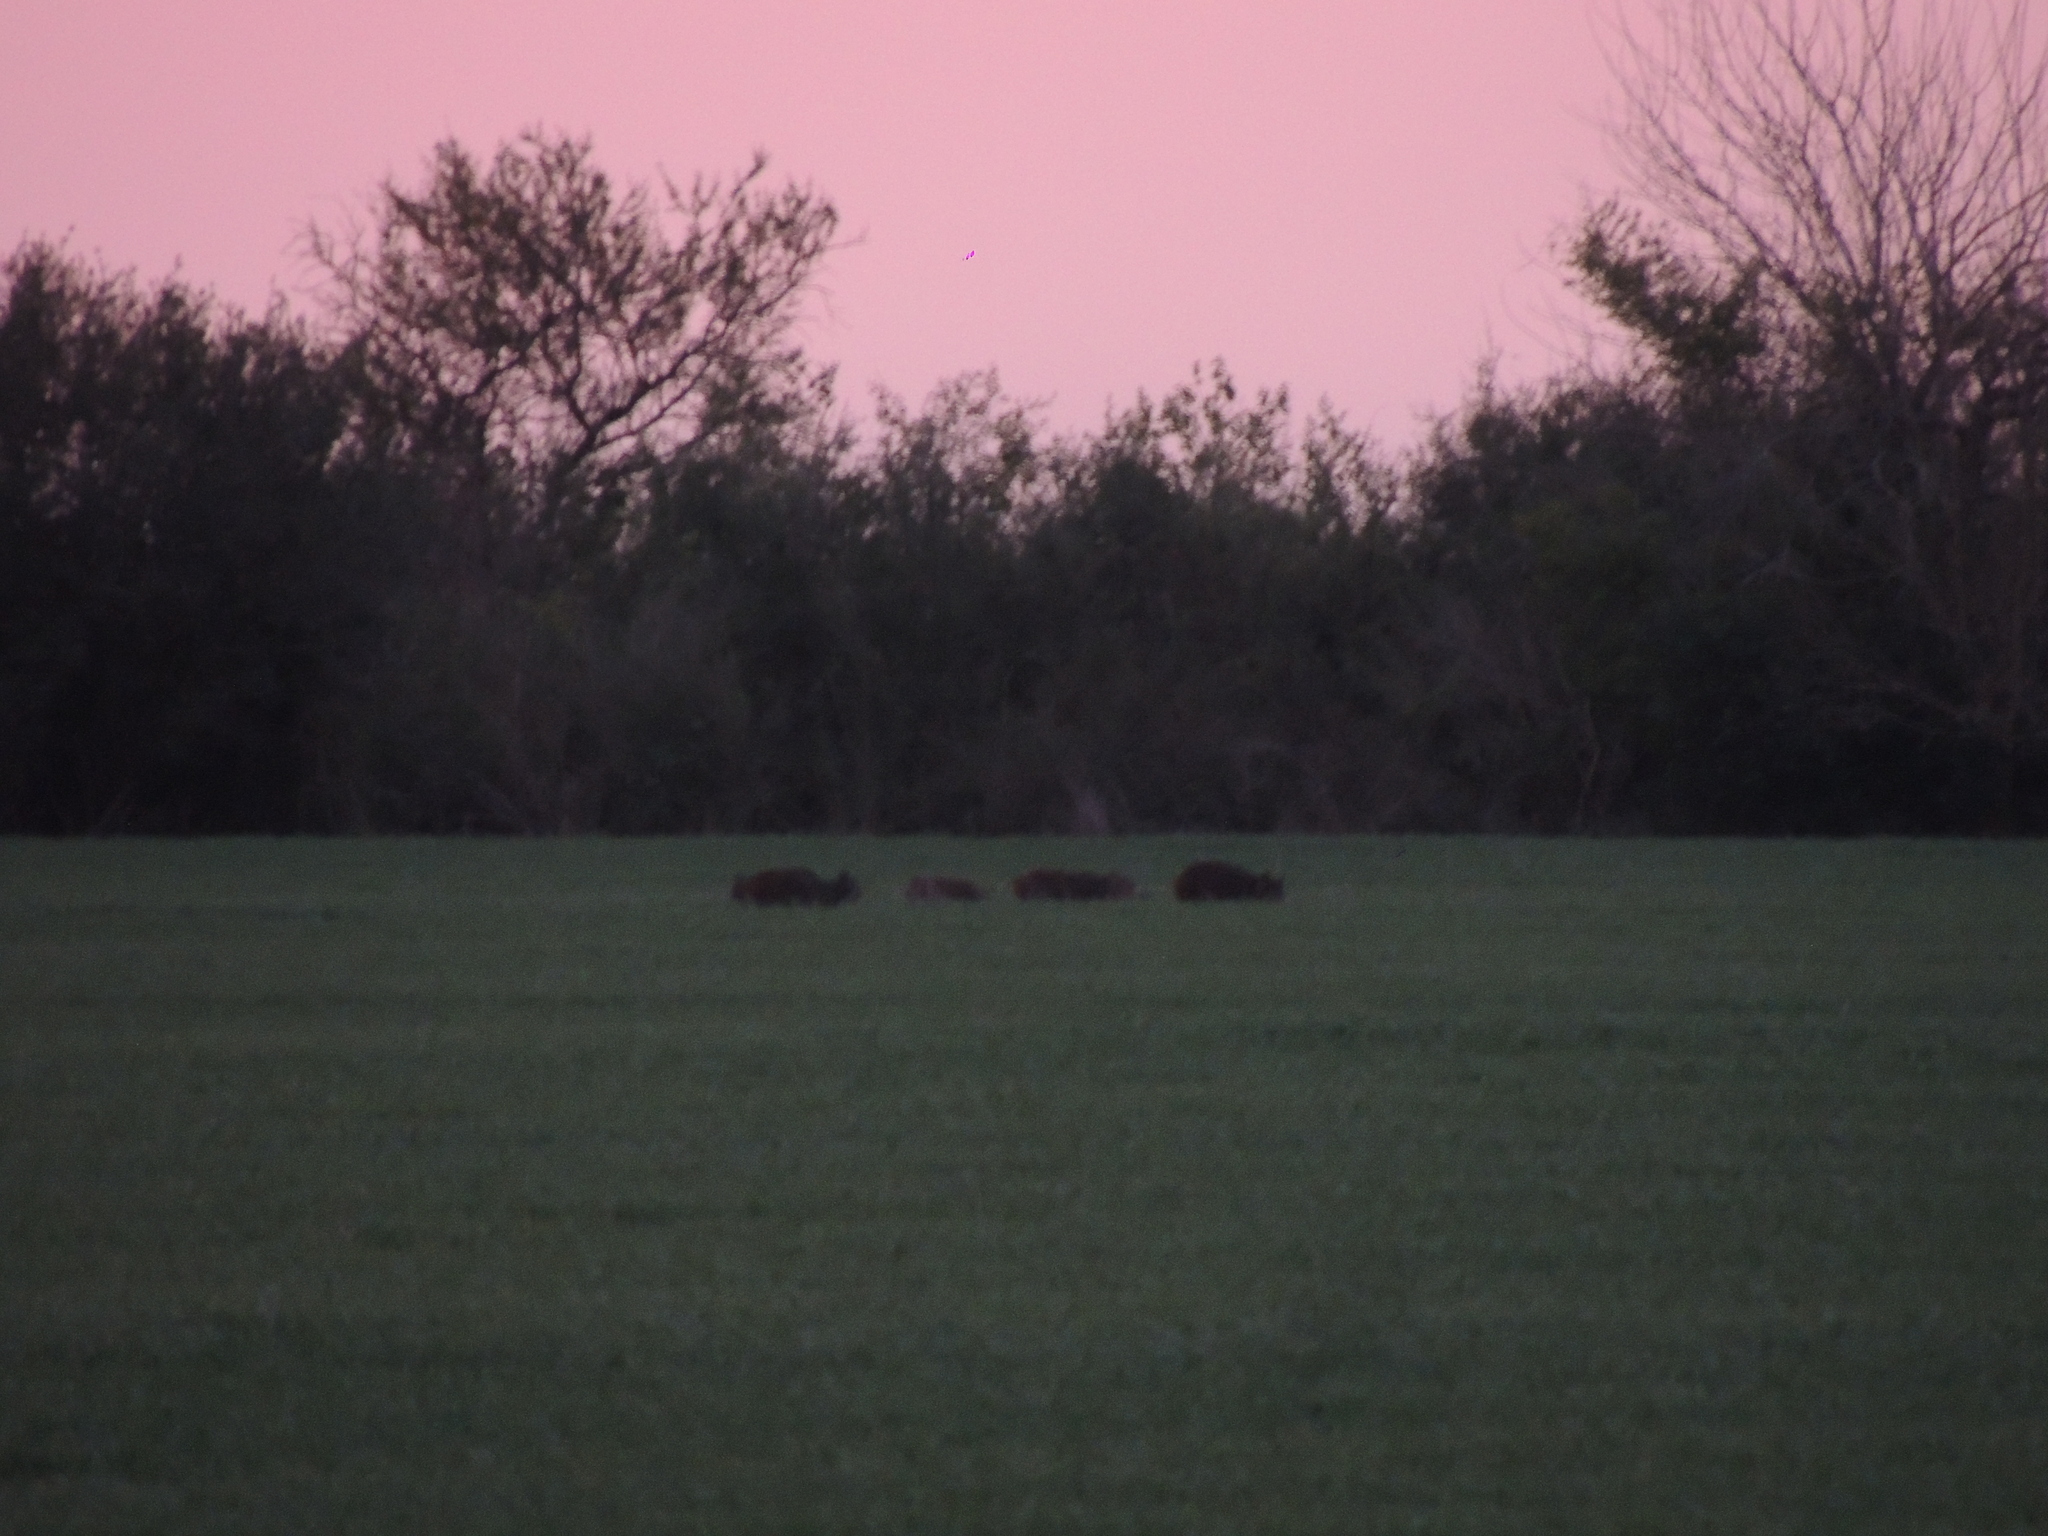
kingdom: Animalia
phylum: Chordata
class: Mammalia
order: Artiodactyla
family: Suidae
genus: Sus
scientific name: Sus scrofa
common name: Wild boar
